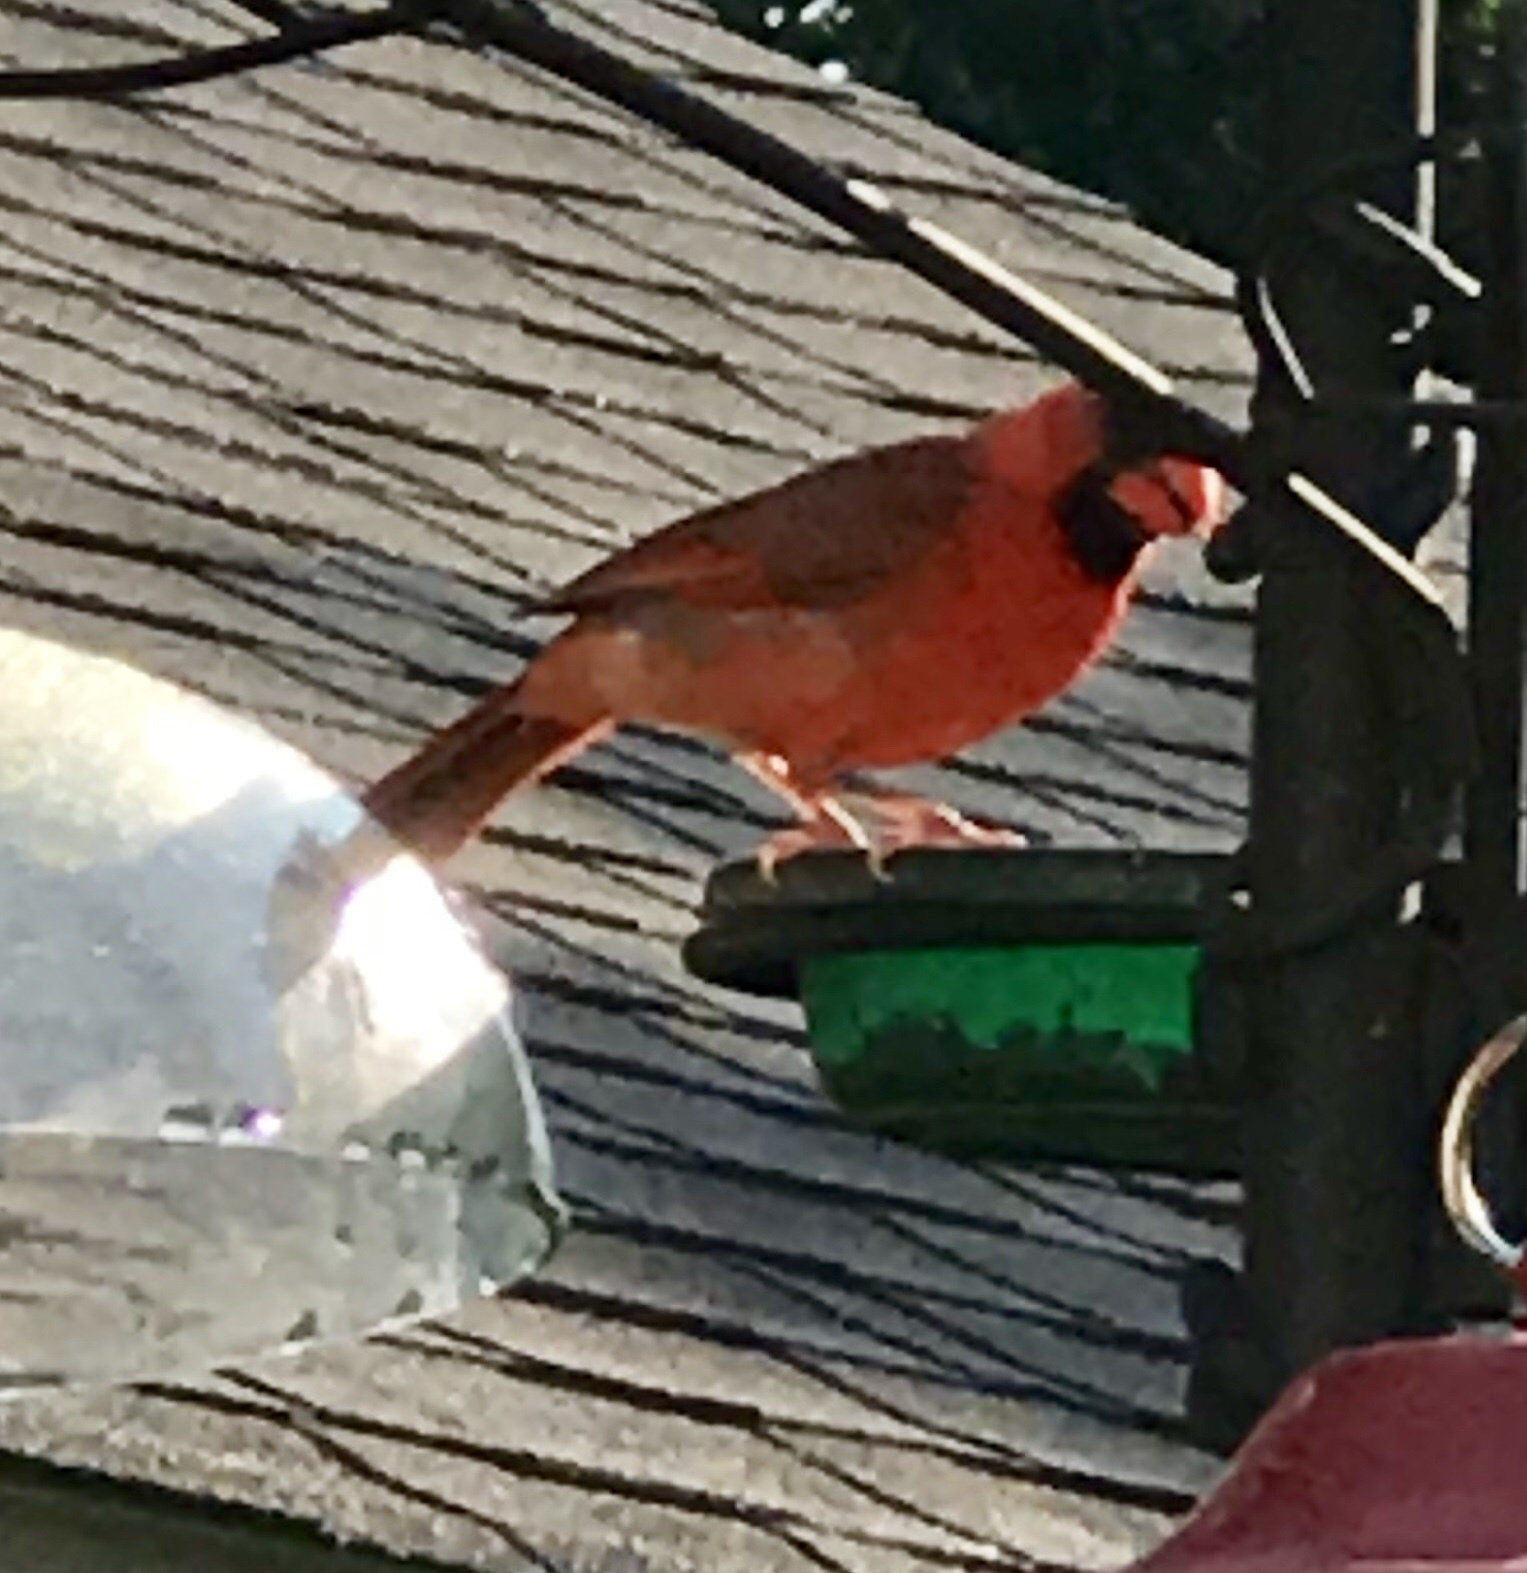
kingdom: Animalia
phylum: Chordata
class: Aves
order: Passeriformes
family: Cardinalidae
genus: Cardinalis
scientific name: Cardinalis cardinalis
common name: Northern cardinal
